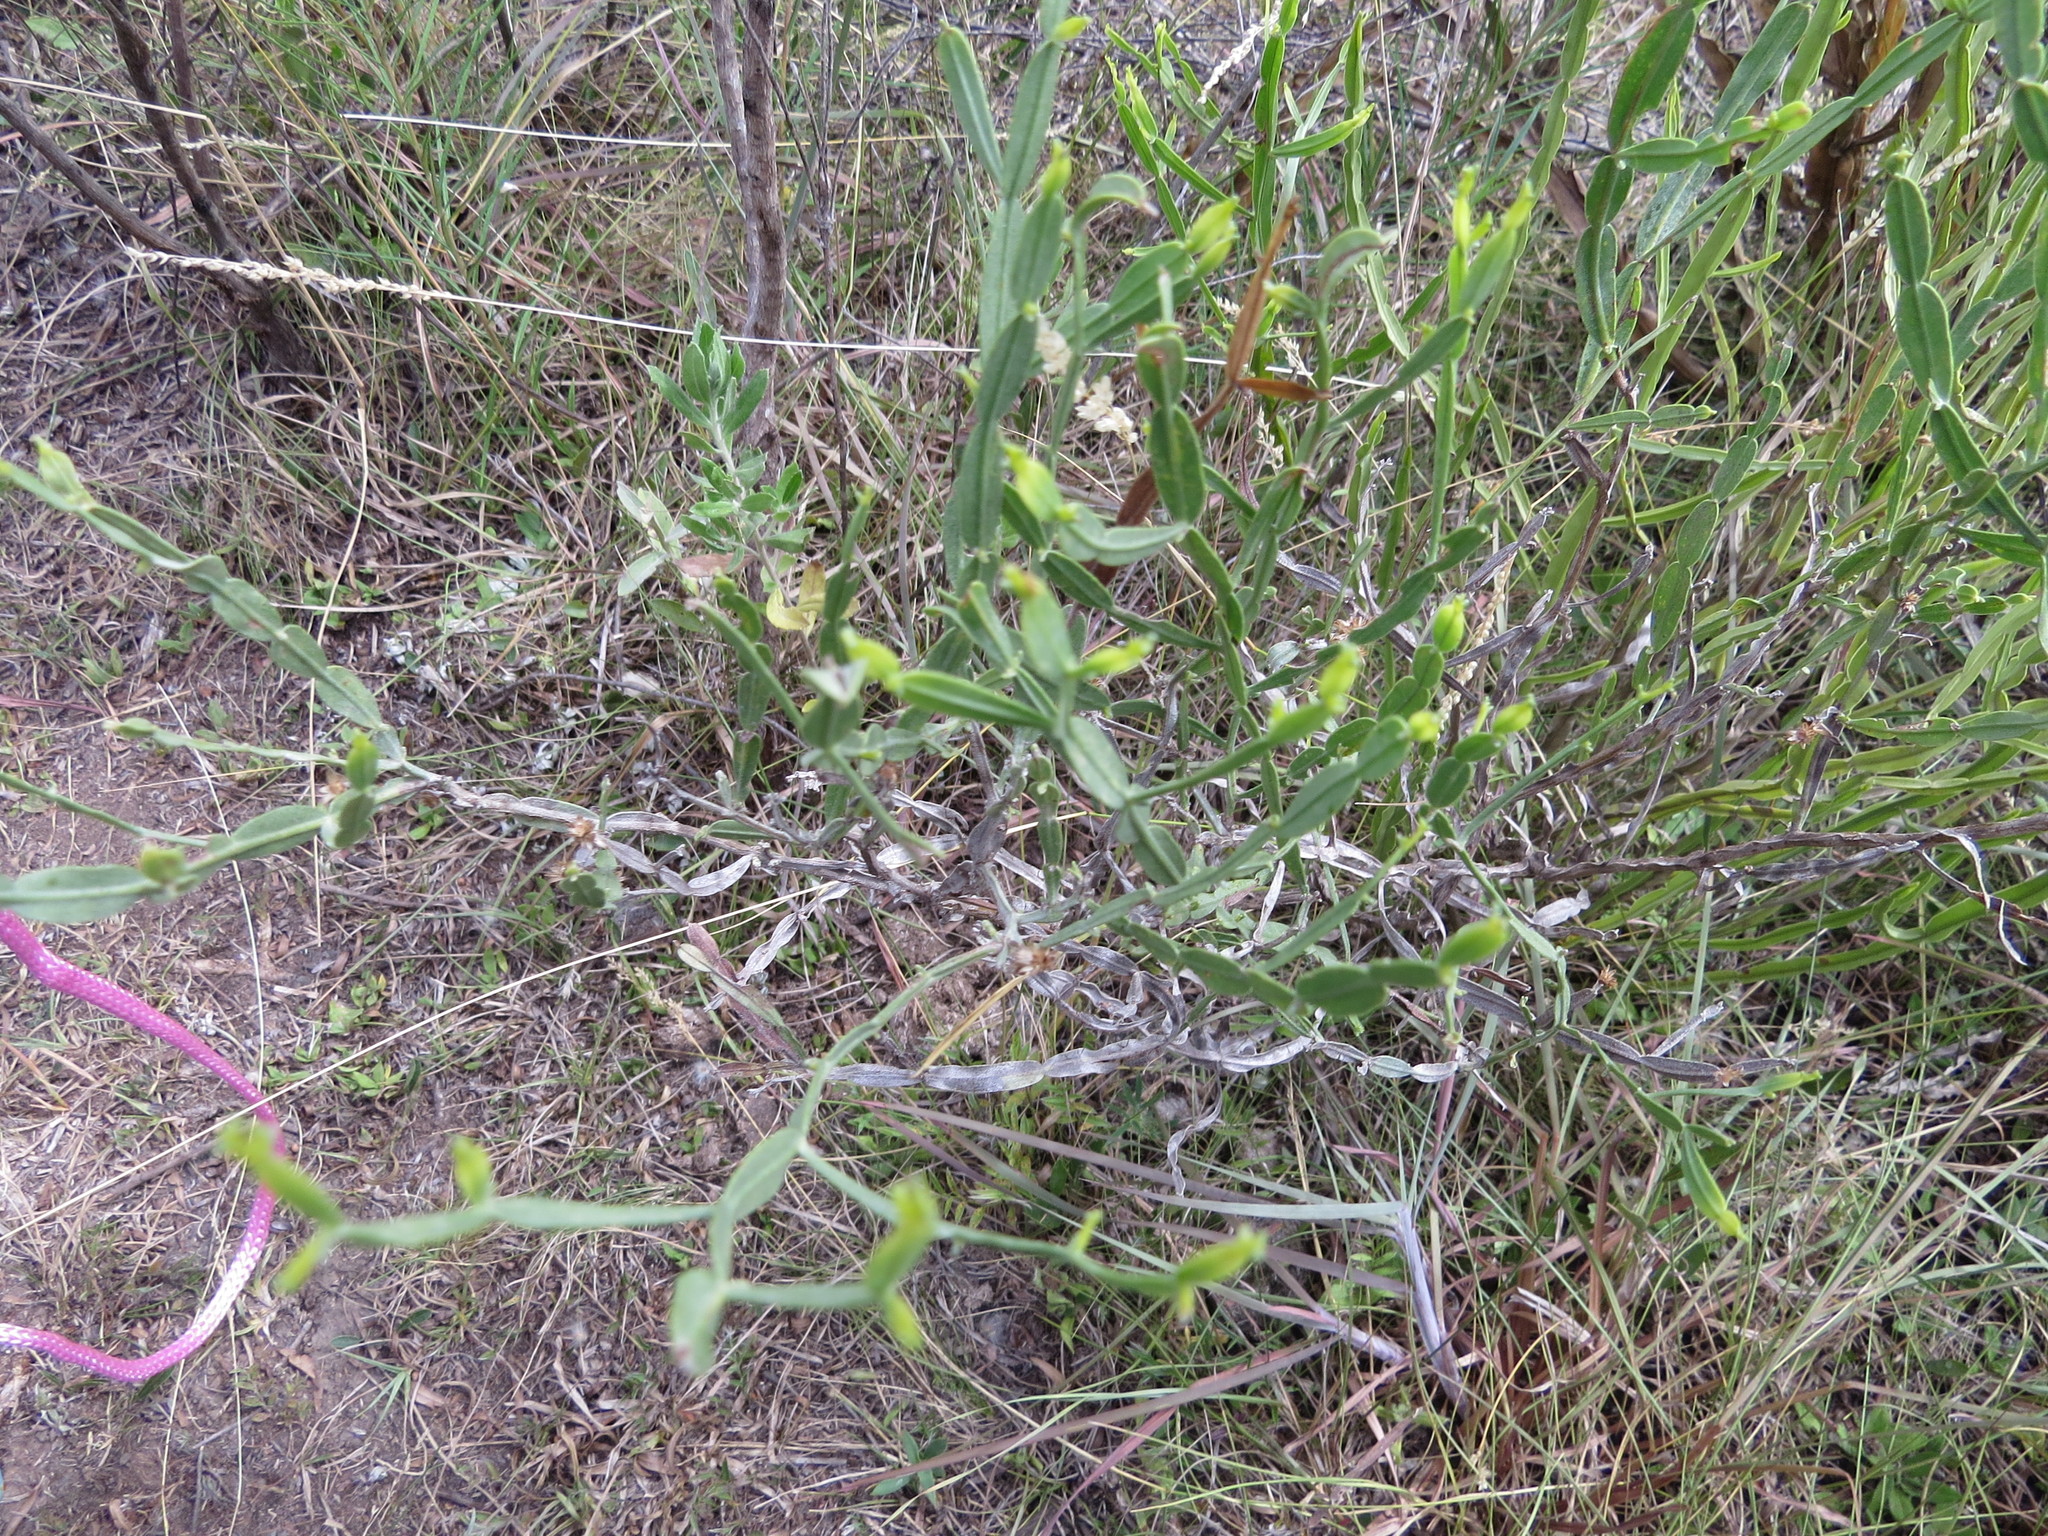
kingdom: Plantae
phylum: Tracheophyta
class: Magnoliopsida
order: Asterales
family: Asteraceae
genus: Baccharis
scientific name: Baccharis articulata
